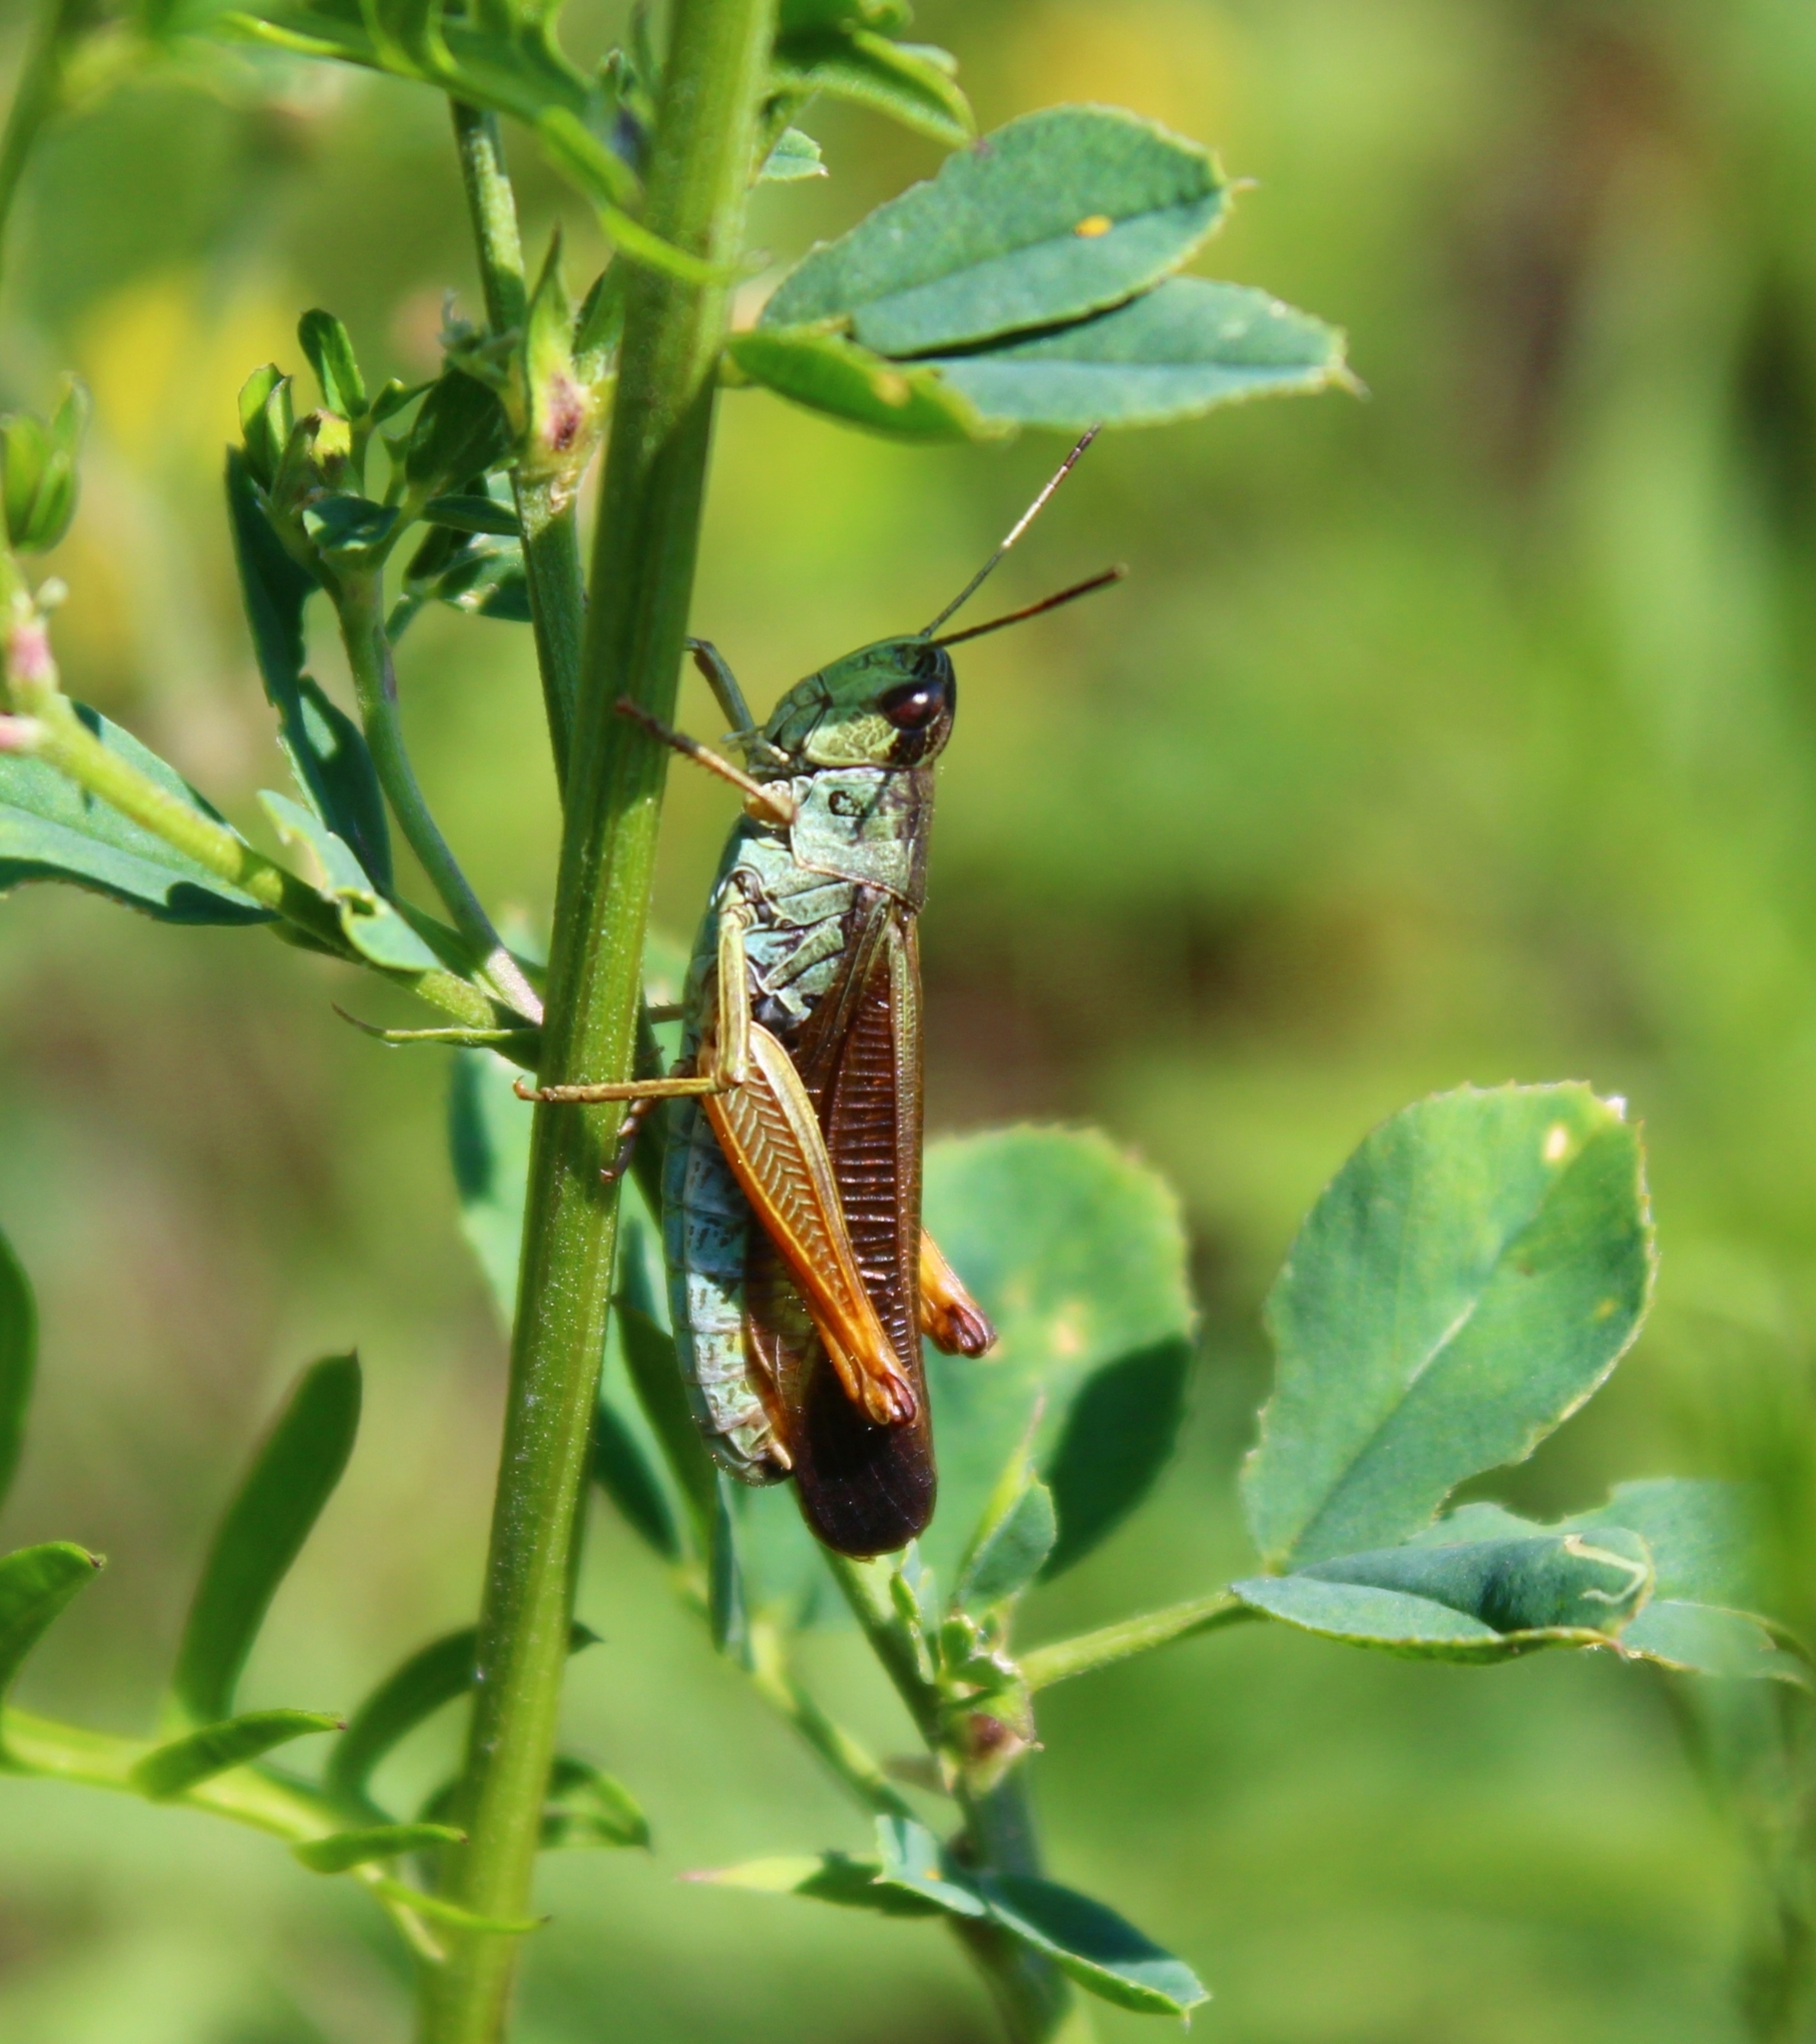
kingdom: Animalia
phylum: Arthropoda
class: Insecta
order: Orthoptera
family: Acrididae
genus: Stauroderus
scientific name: Stauroderus scalaris
